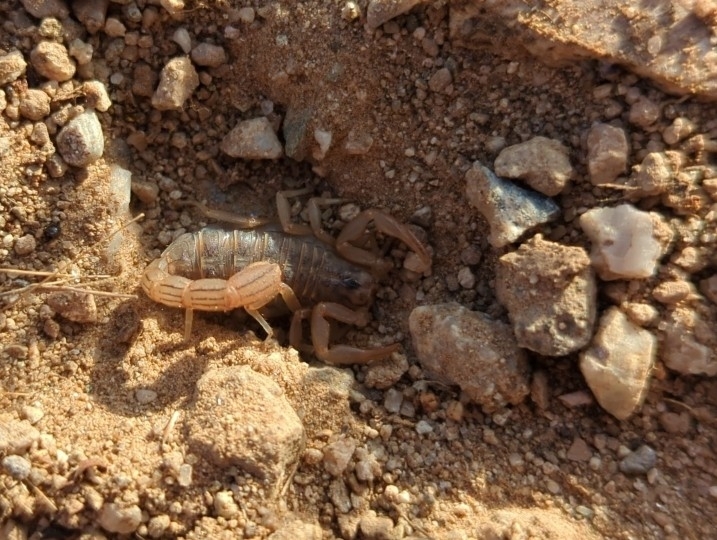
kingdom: Animalia
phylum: Arthropoda
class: Arachnida
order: Scorpiones
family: Vaejovidae
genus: Paravaejovis
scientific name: Paravaejovis spinigerus
